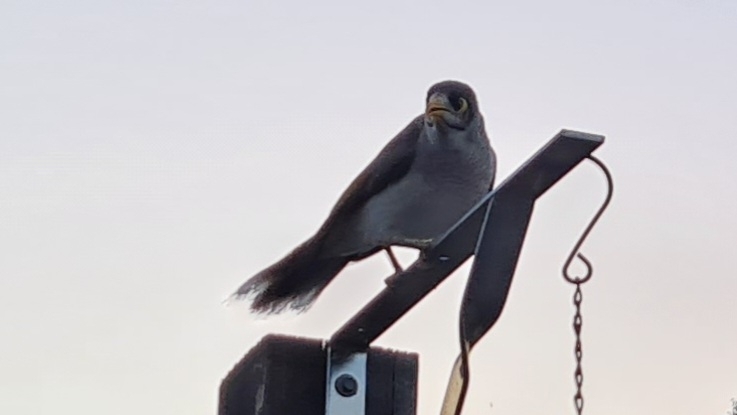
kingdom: Animalia
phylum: Chordata
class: Aves
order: Passeriformes
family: Meliphagidae
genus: Manorina
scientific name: Manorina melanocephala
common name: Noisy miner
